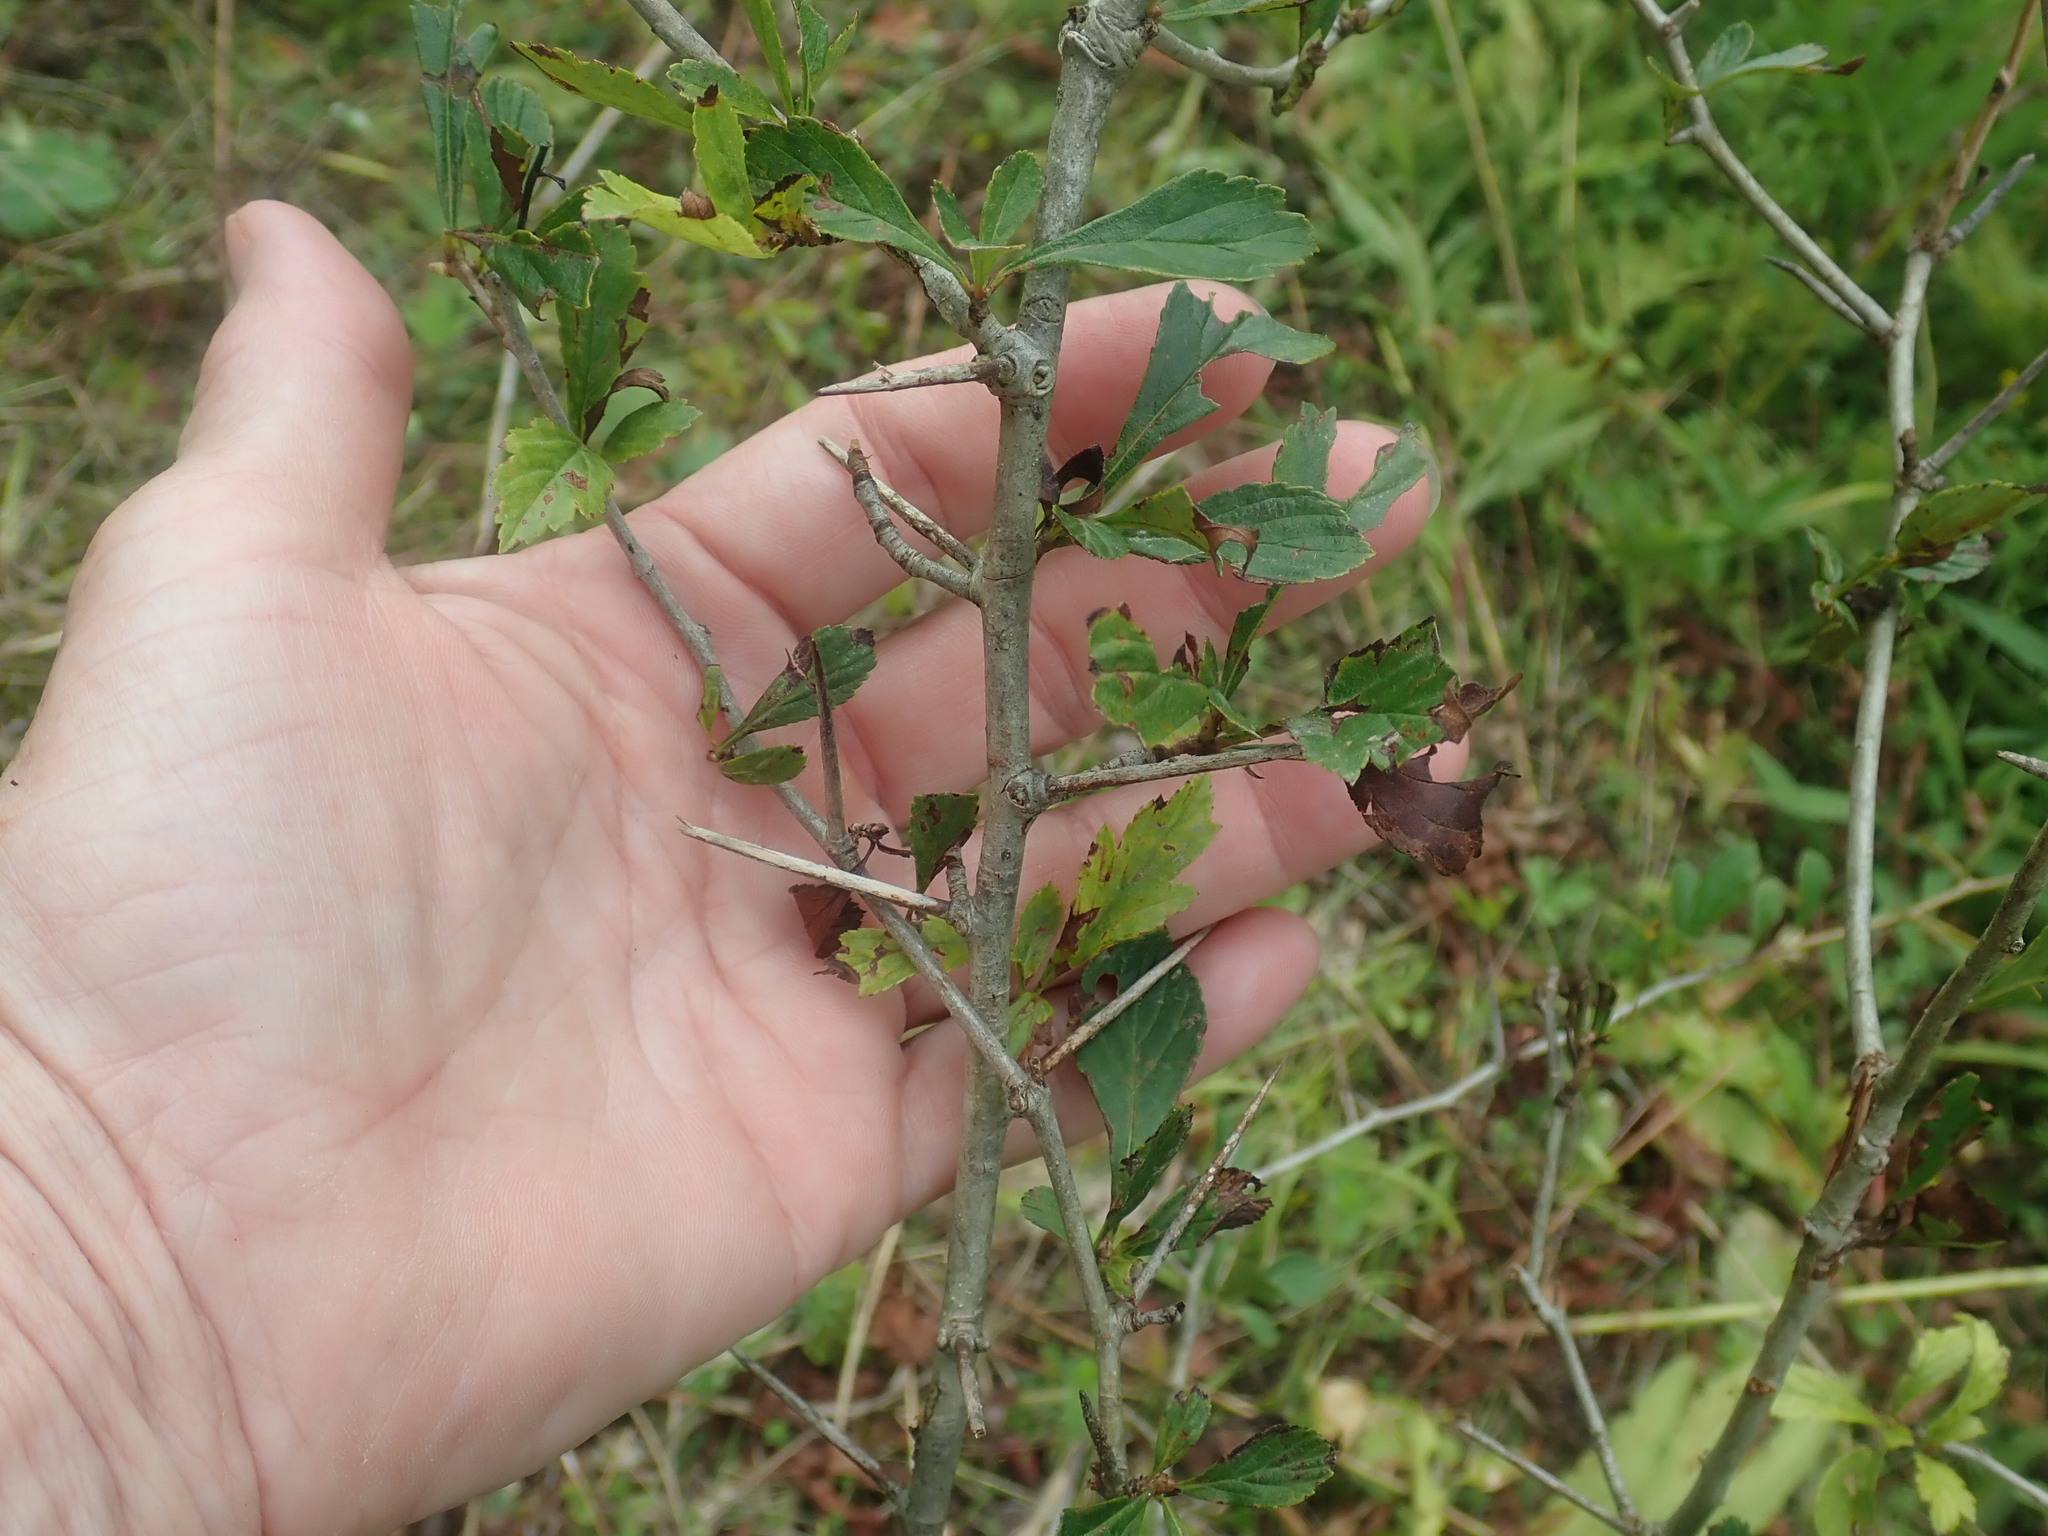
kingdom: Plantae
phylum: Tracheophyta
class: Magnoliopsida
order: Rosales
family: Rosaceae
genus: Crataegus
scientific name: Crataegus
